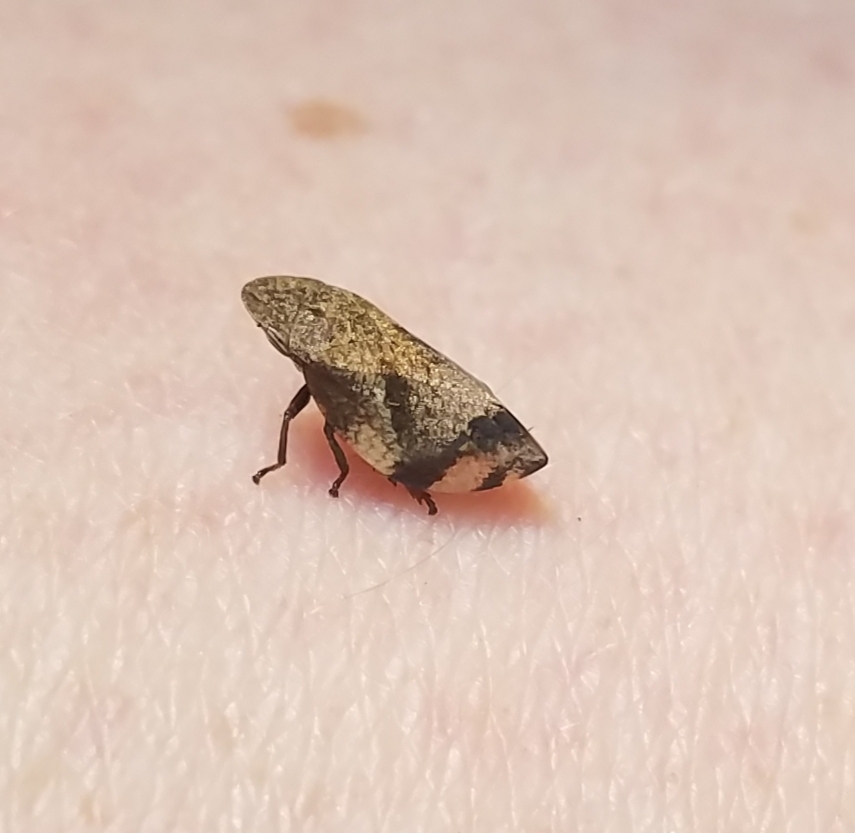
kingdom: Animalia
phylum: Arthropoda
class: Insecta
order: Hemiptera
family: Aphrophoridae
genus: Lepyronia
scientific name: Lepyronia quadrangularis
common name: Diamond-backed spittlebug
